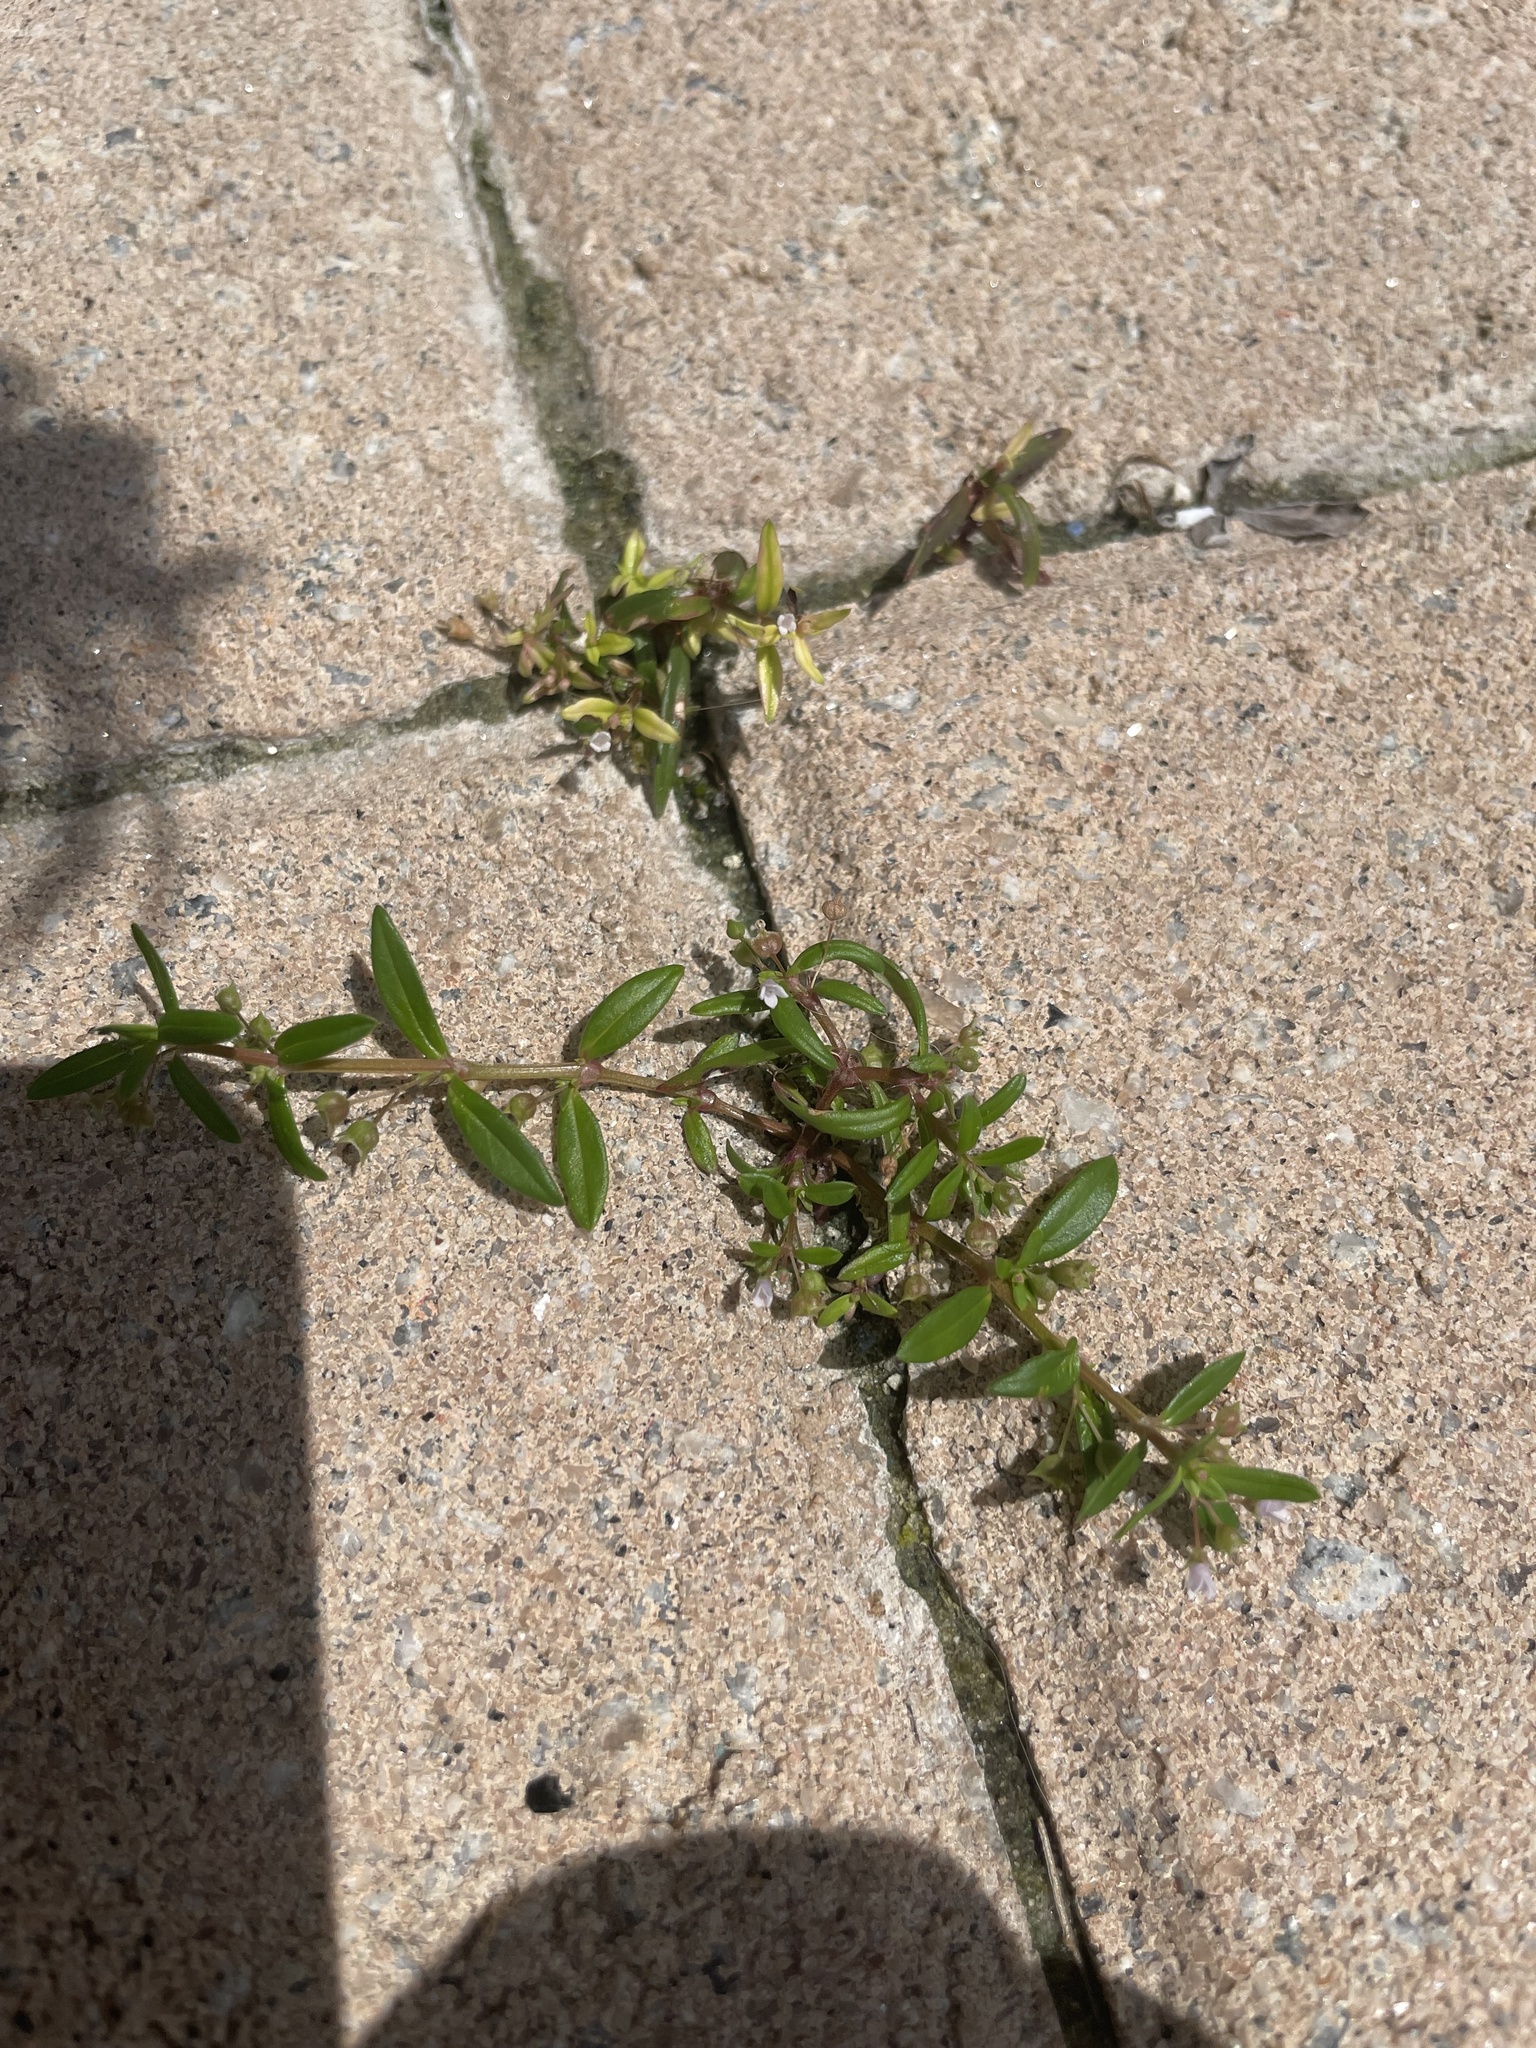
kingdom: Plantae
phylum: Tracheophyta
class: Magnoliopsida
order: Gentianales
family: Rubiaceae
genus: Oldenlandia
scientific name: Oldenlandia corymbosa
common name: Flat-top mille graines
